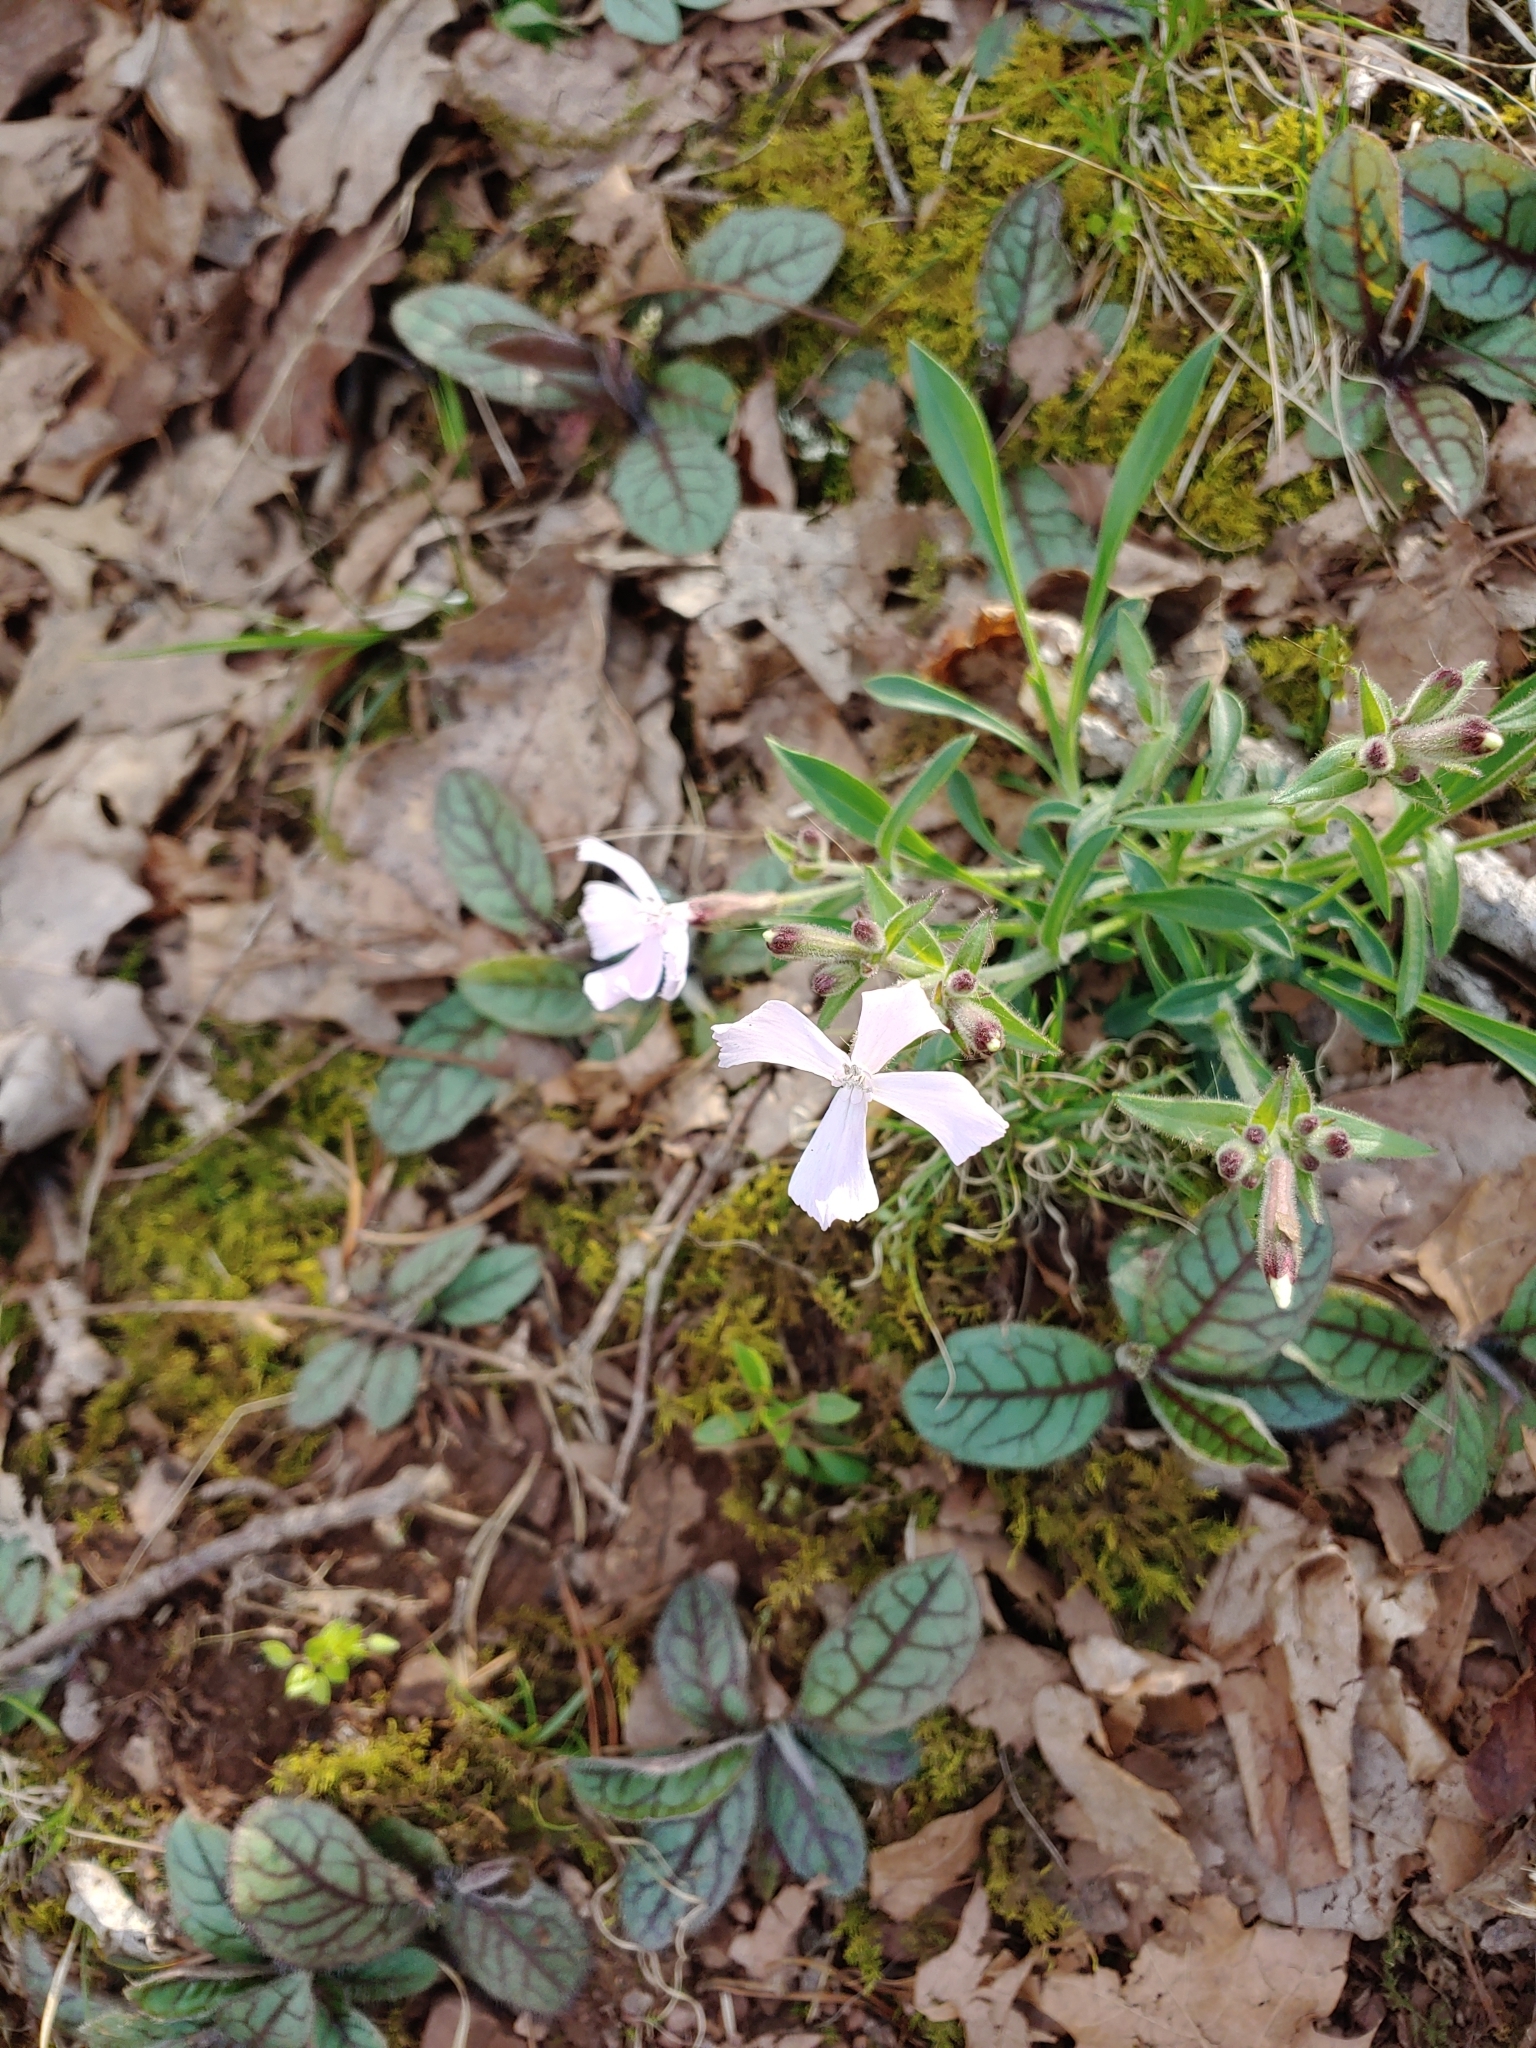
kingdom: Plantae
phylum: Tracheophyta
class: Magnoliopsida
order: Caryophyllales
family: Caryophyllaceae
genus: Silene
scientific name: Silene caroliniana
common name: Sticky catchfly
